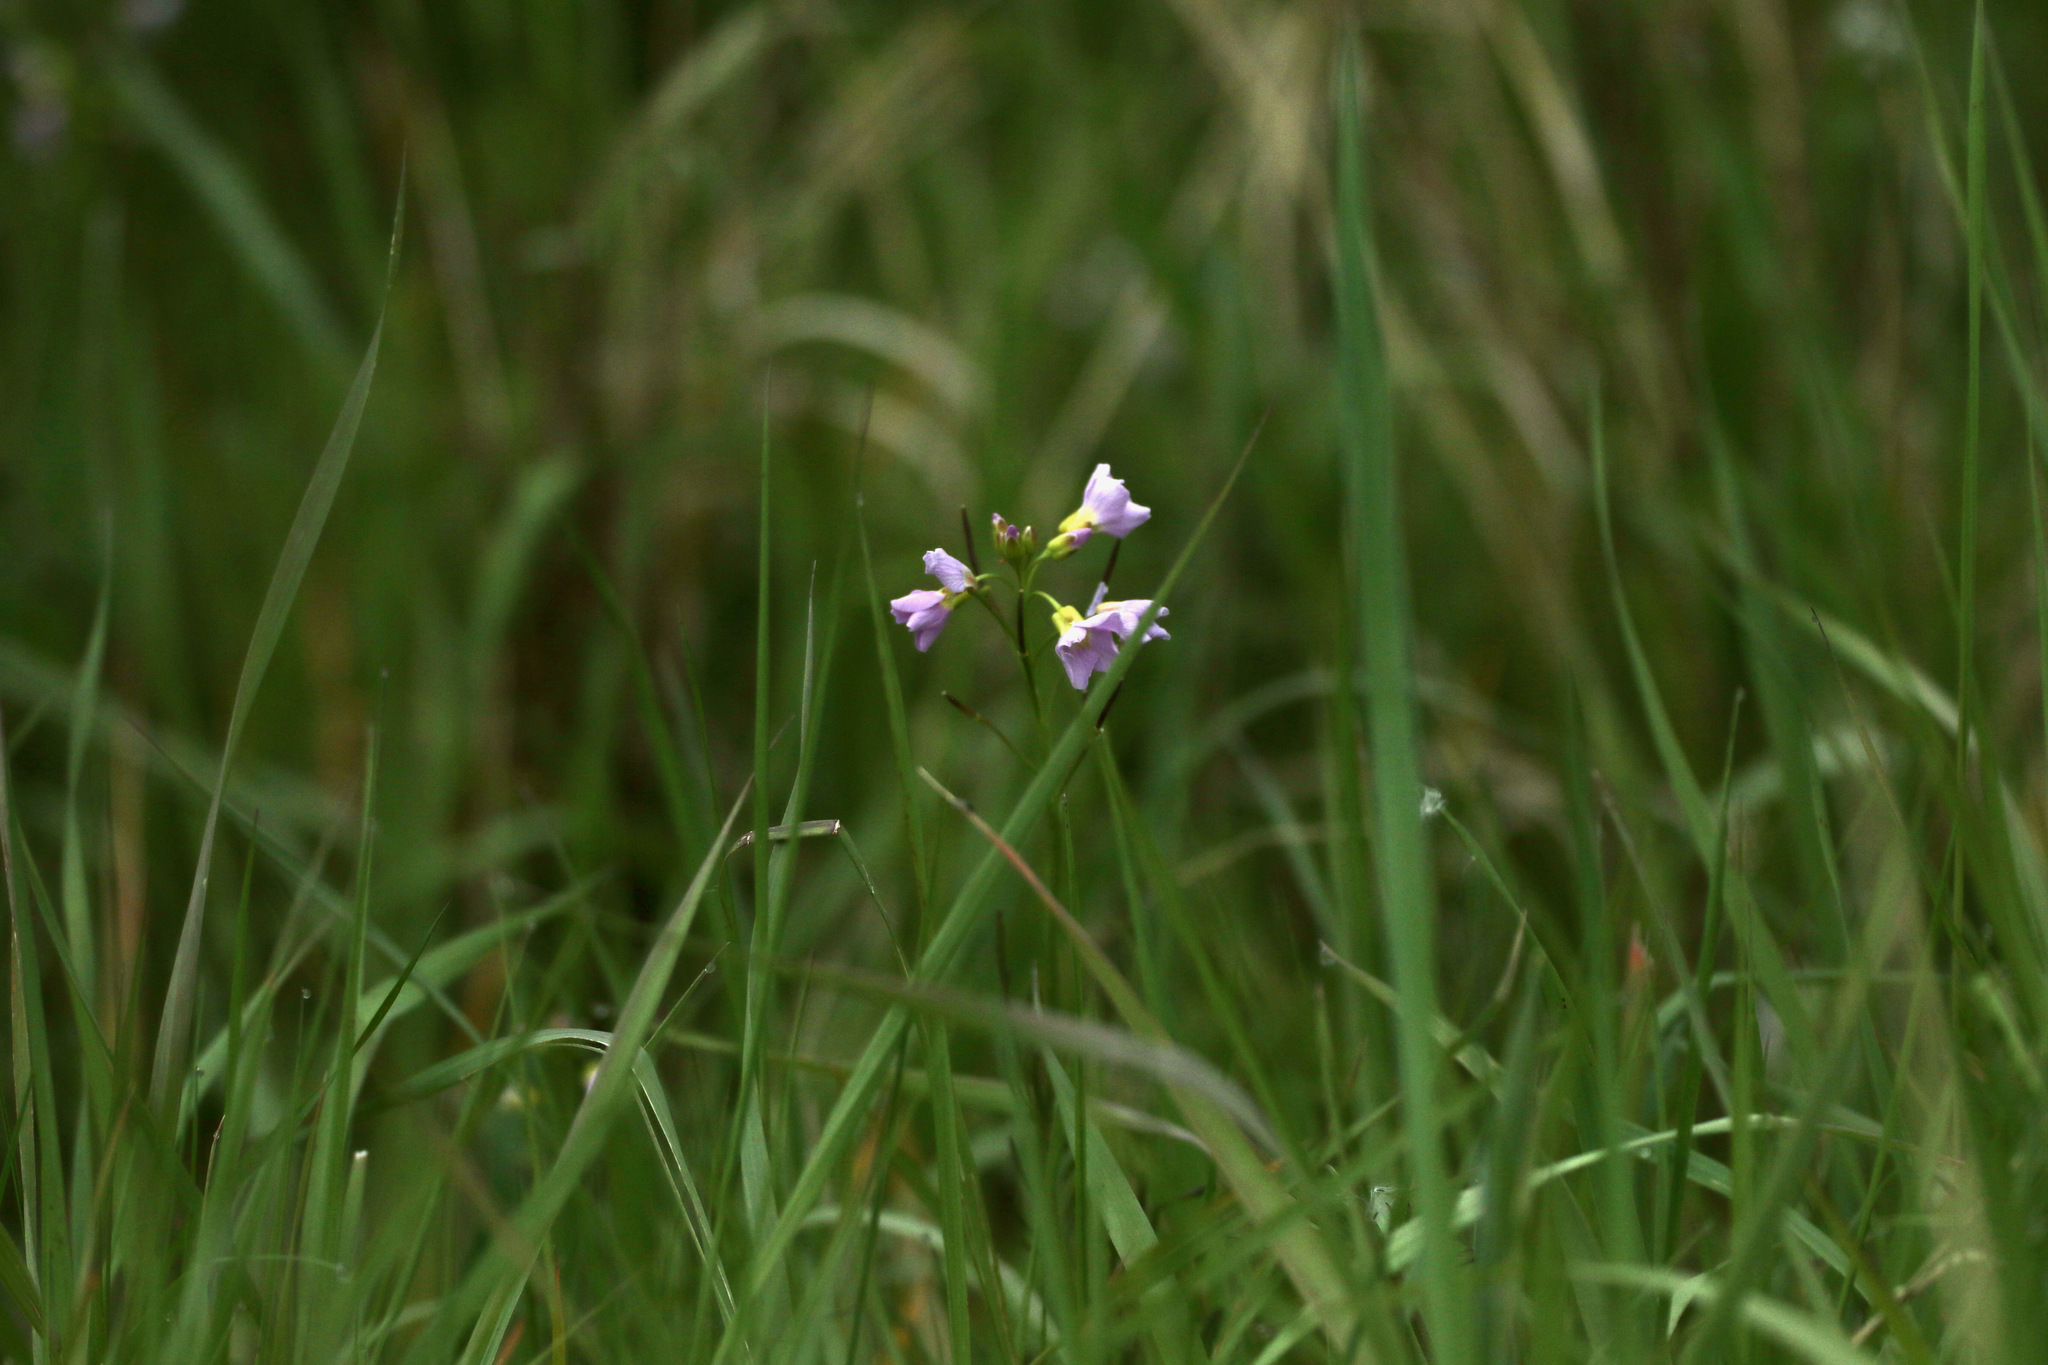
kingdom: Plantae
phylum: Tracheophyta
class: Magnoliopsida
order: Brassicales
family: Brassicaceae
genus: Cardamine
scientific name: Cardamine pratensis
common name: Cuckoo flower
